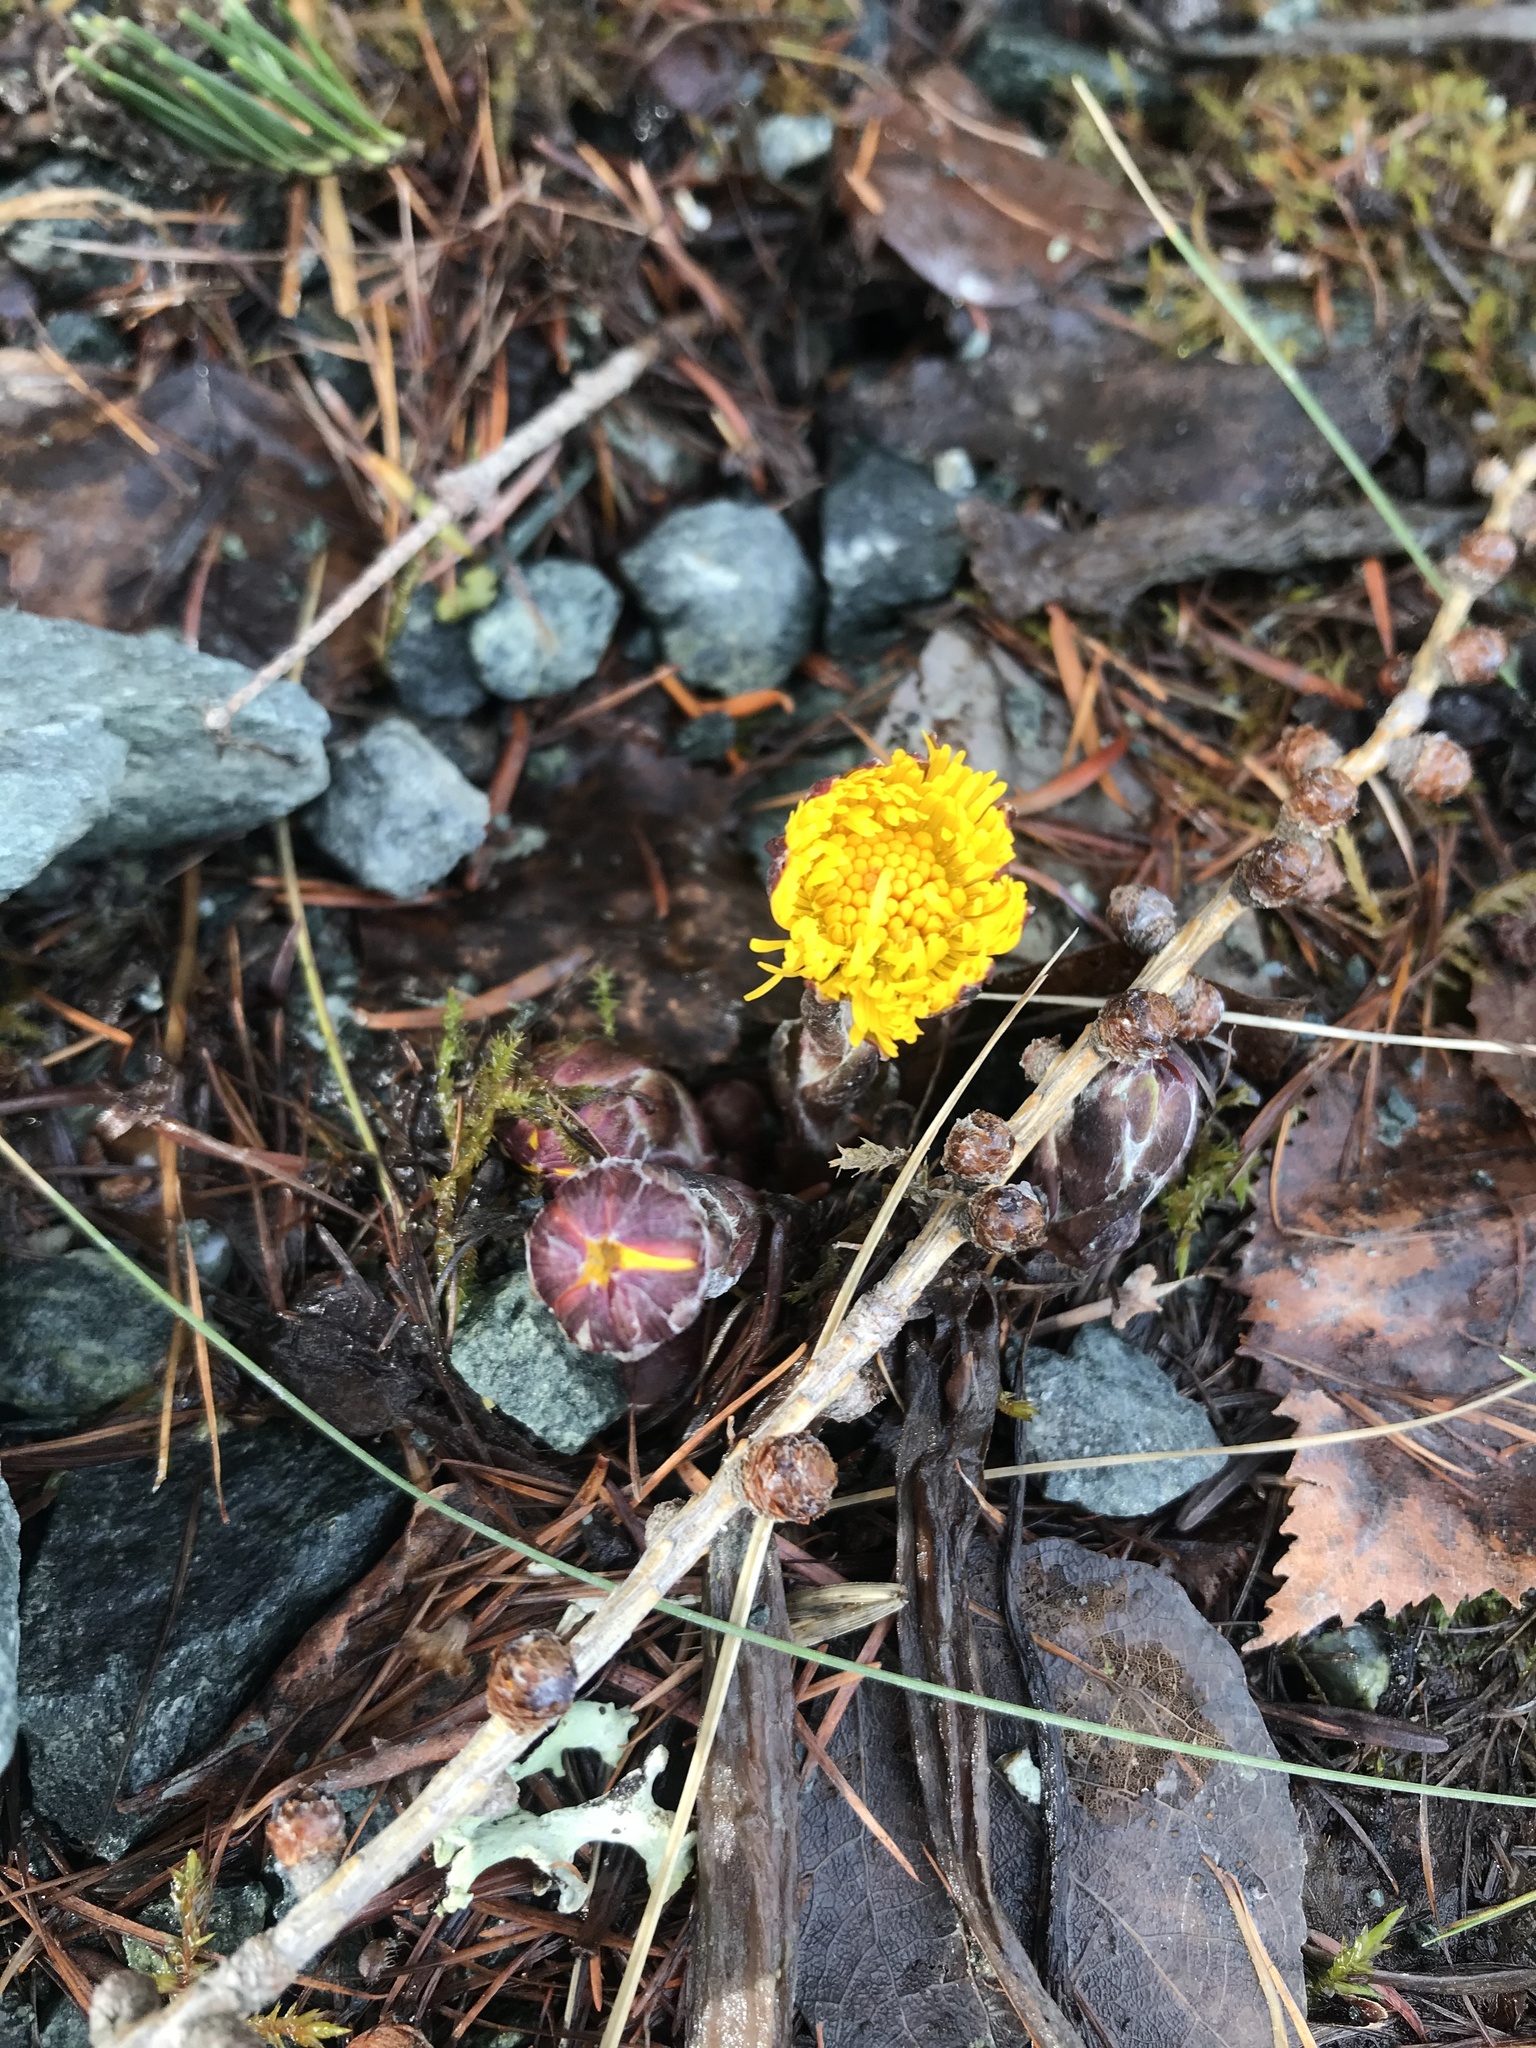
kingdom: Plantae
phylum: Tracheophyta
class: Magnoliopsida
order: Asterales
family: Asteraceae
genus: Tussilago
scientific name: Tussilago farfara
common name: Coltsfoot
